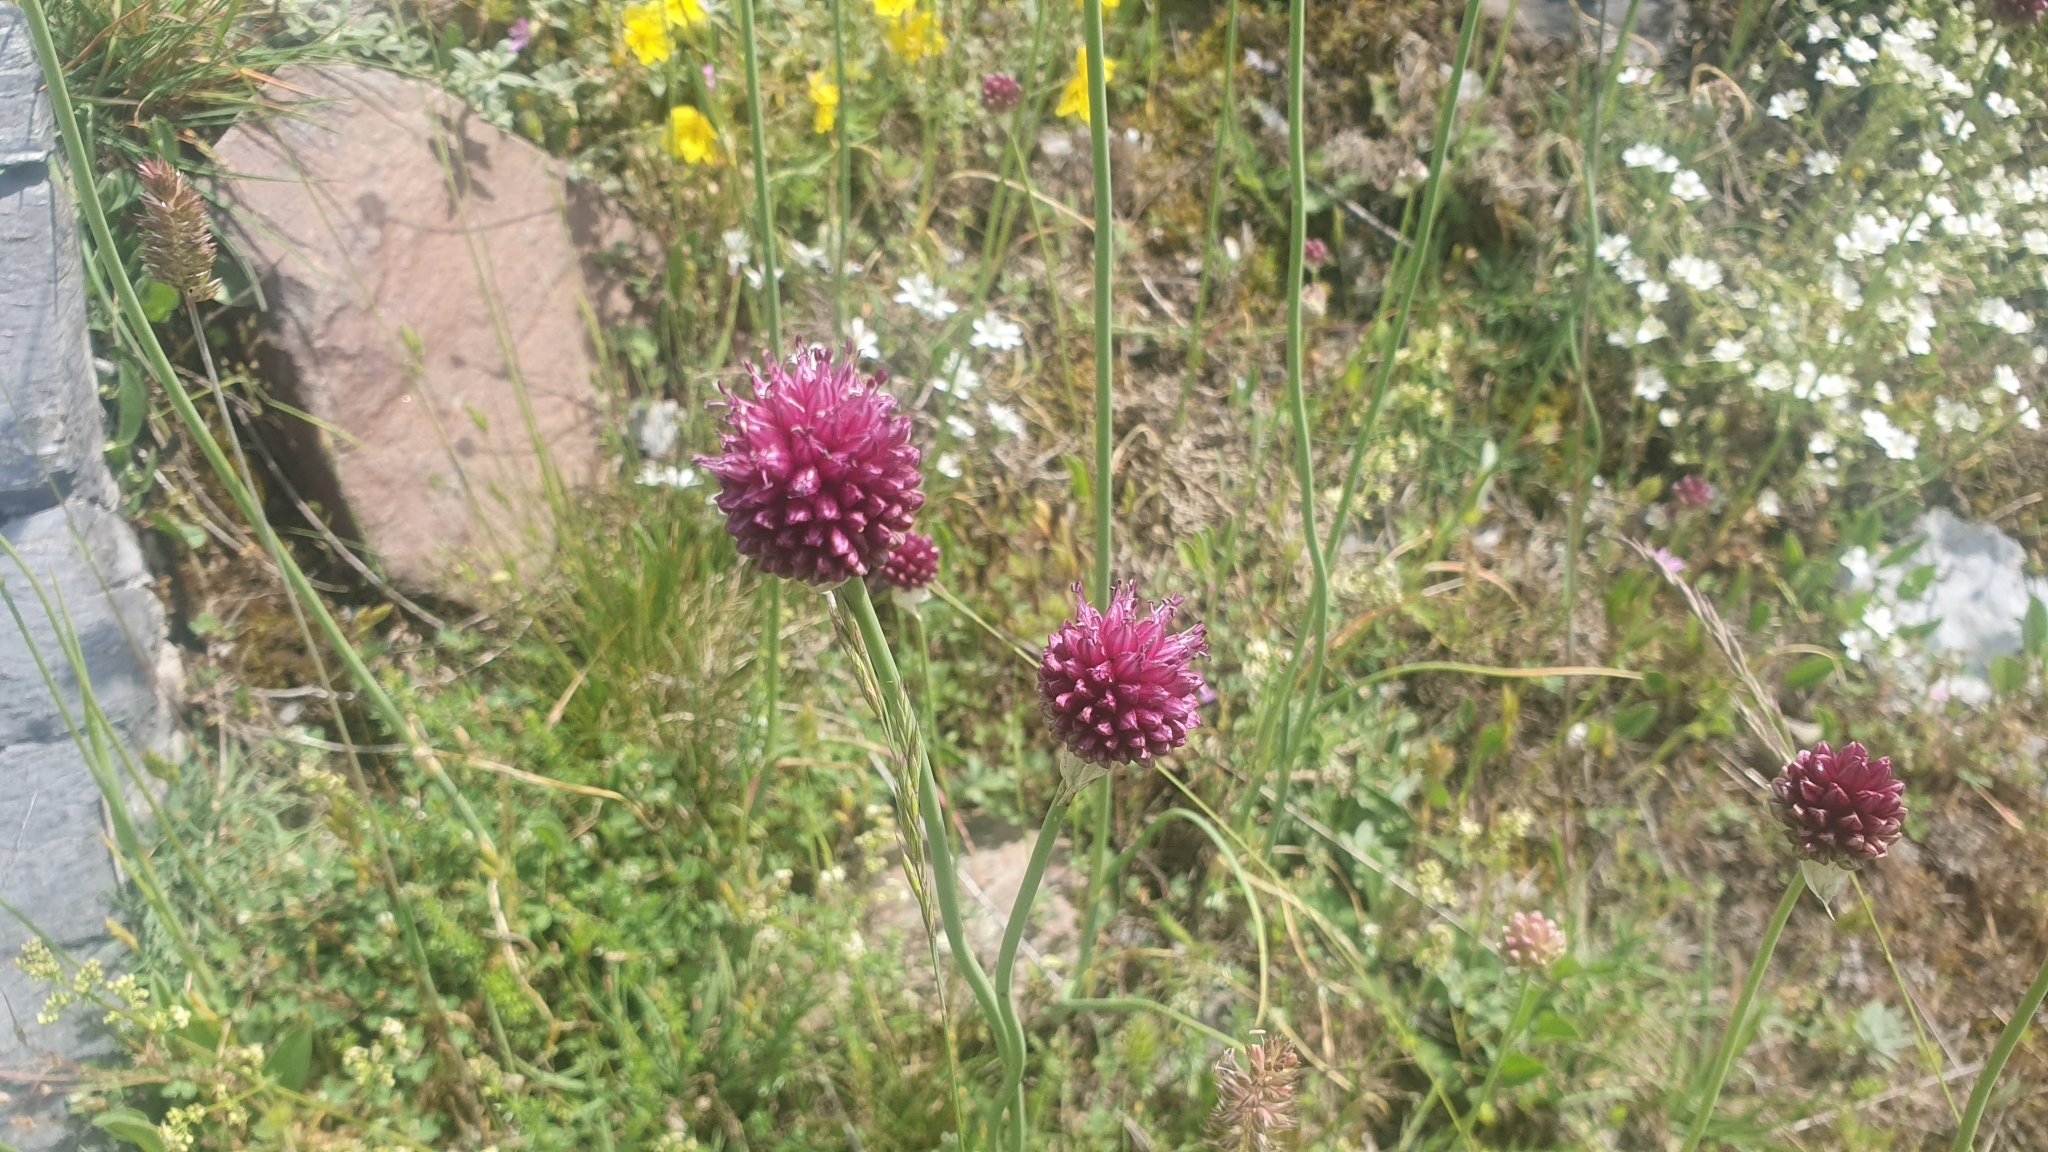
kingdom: Plantae
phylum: Tracheophyta
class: Liliopsida
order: Asparagales
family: Amaryllidaceae
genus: Allium
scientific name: Allium sphaerocephalon
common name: Round-headed leek
